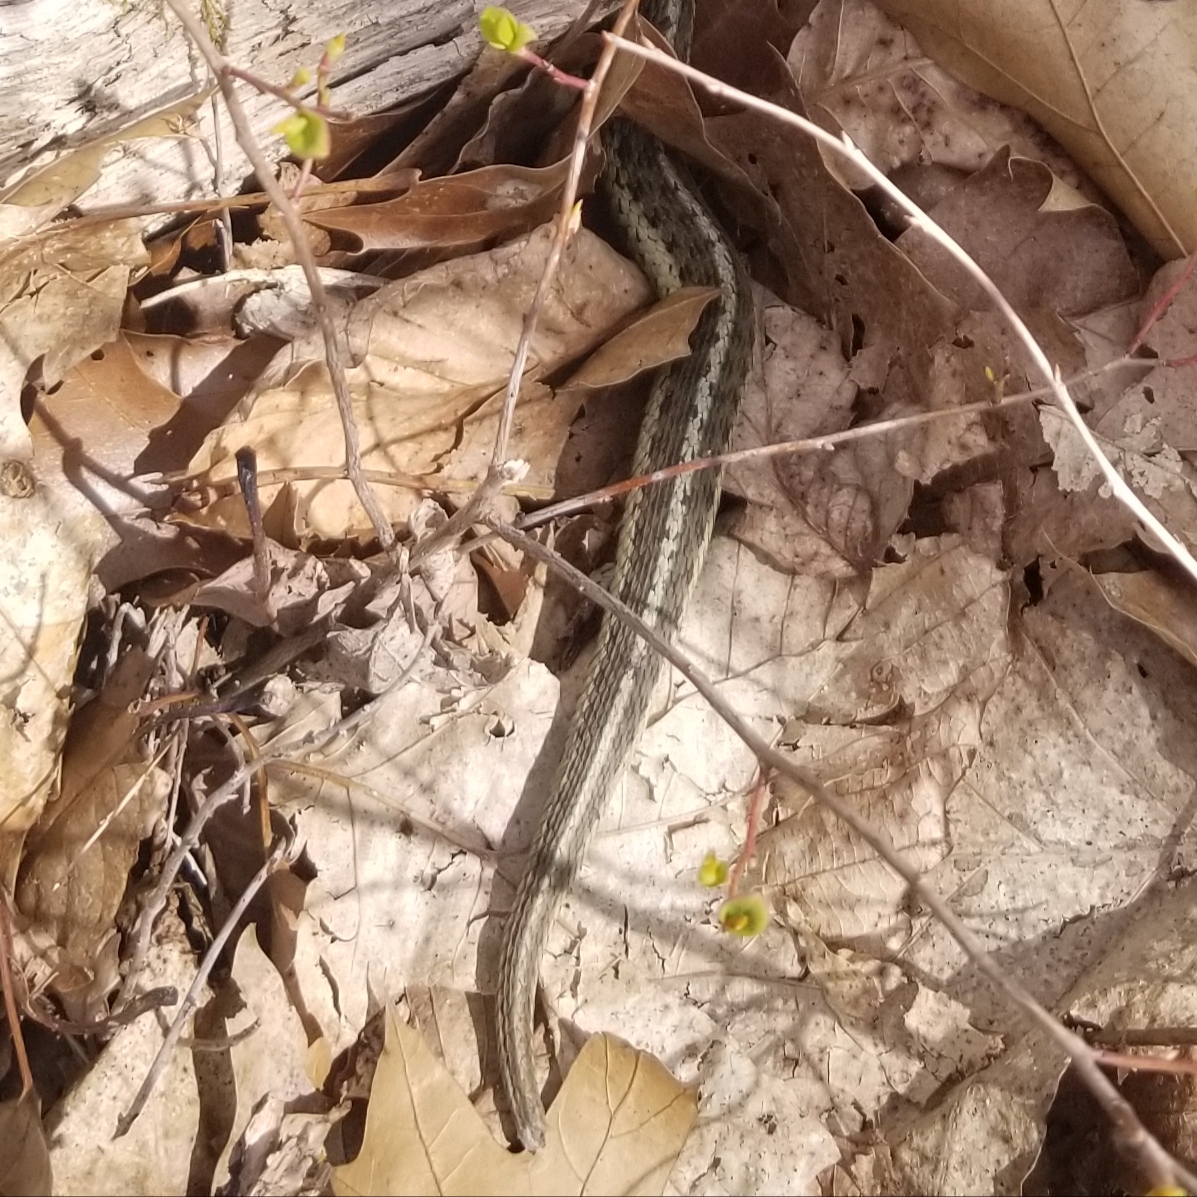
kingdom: Animalia
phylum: Chordata
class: Squamata
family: Colubridae
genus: Thamnophis
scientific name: Thamnophis sirtalis
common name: Common garter snake
